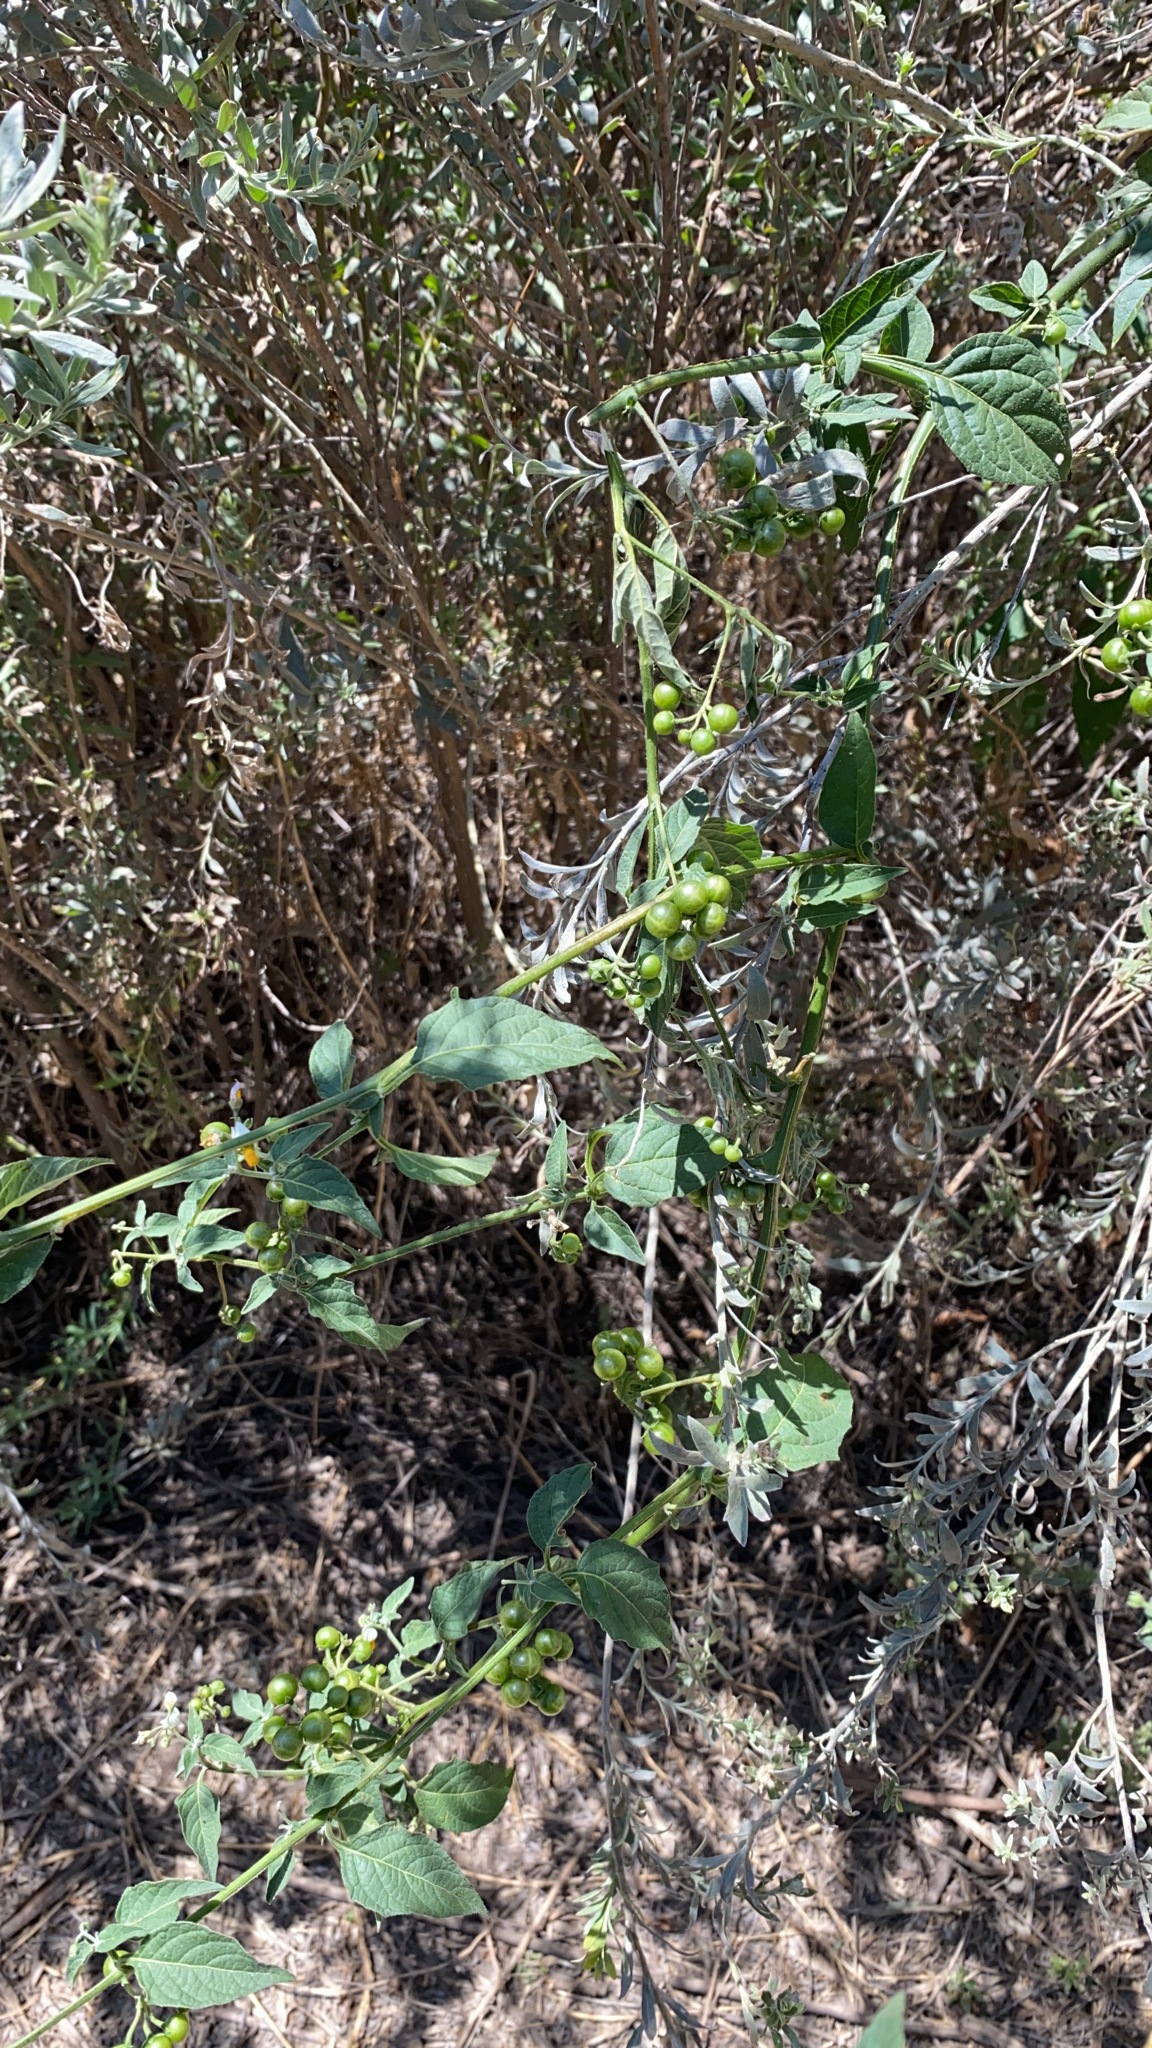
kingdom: Plantae
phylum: Tracheophyta
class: Magnoliopsida
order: Solanales
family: Solanaceae
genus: Solanum
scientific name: Solanum douglasii
